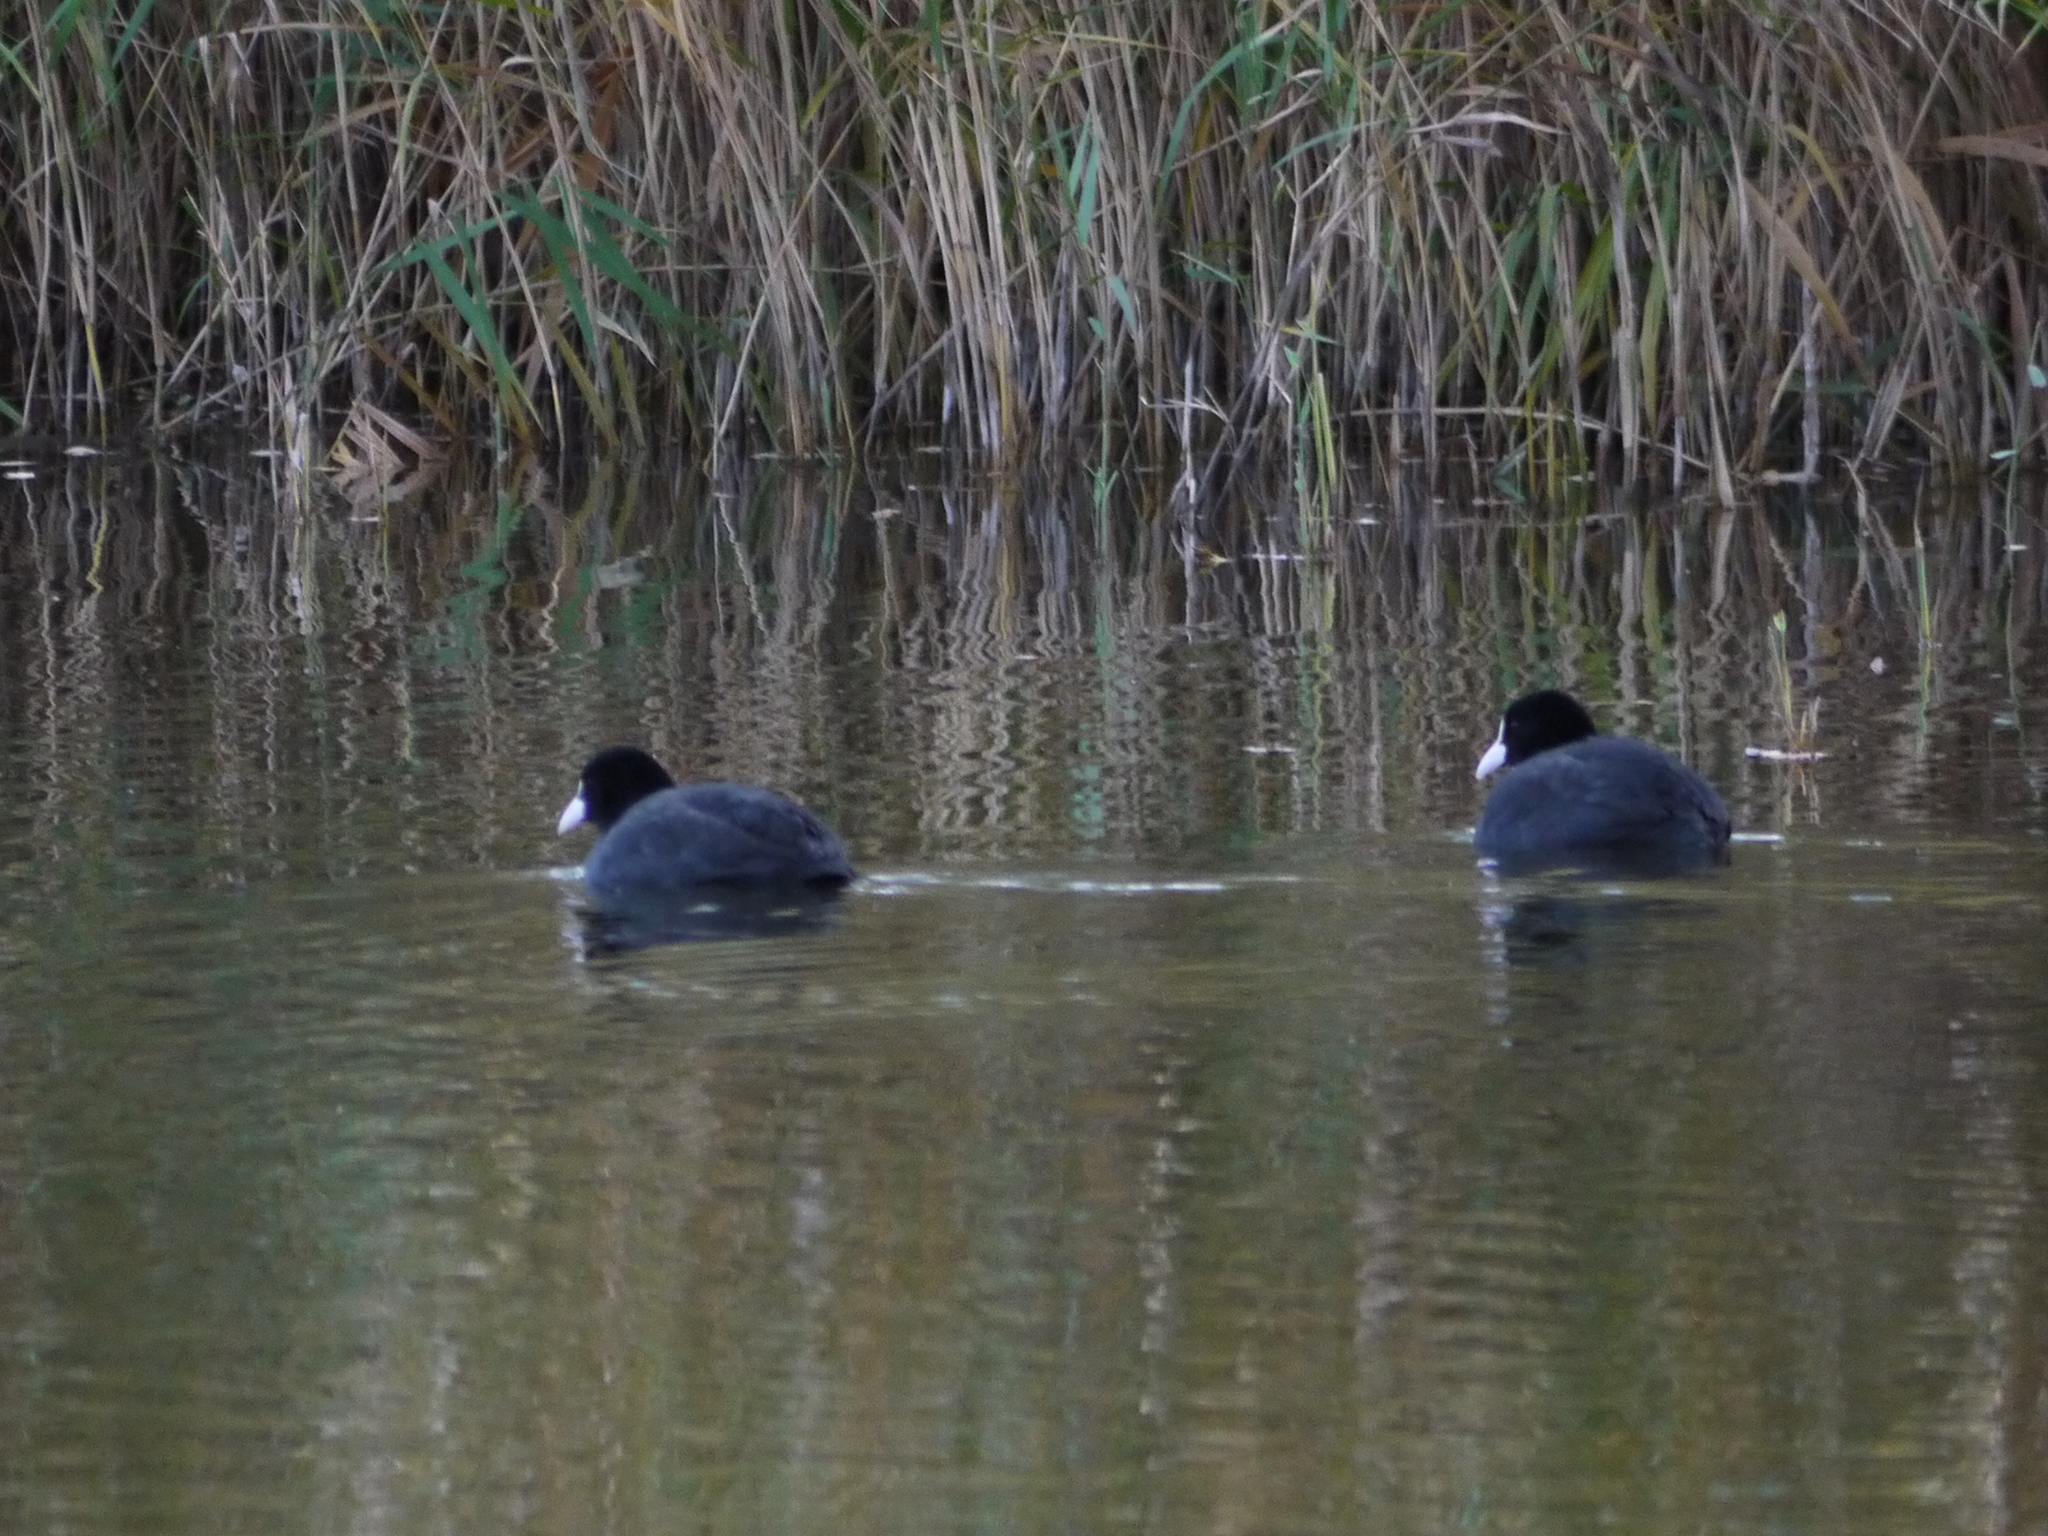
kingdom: Animalia
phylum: Chordata
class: Aves
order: Gruiformes
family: Rallidae
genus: Fulica
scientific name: Fulica atra
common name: Eurasian coot
